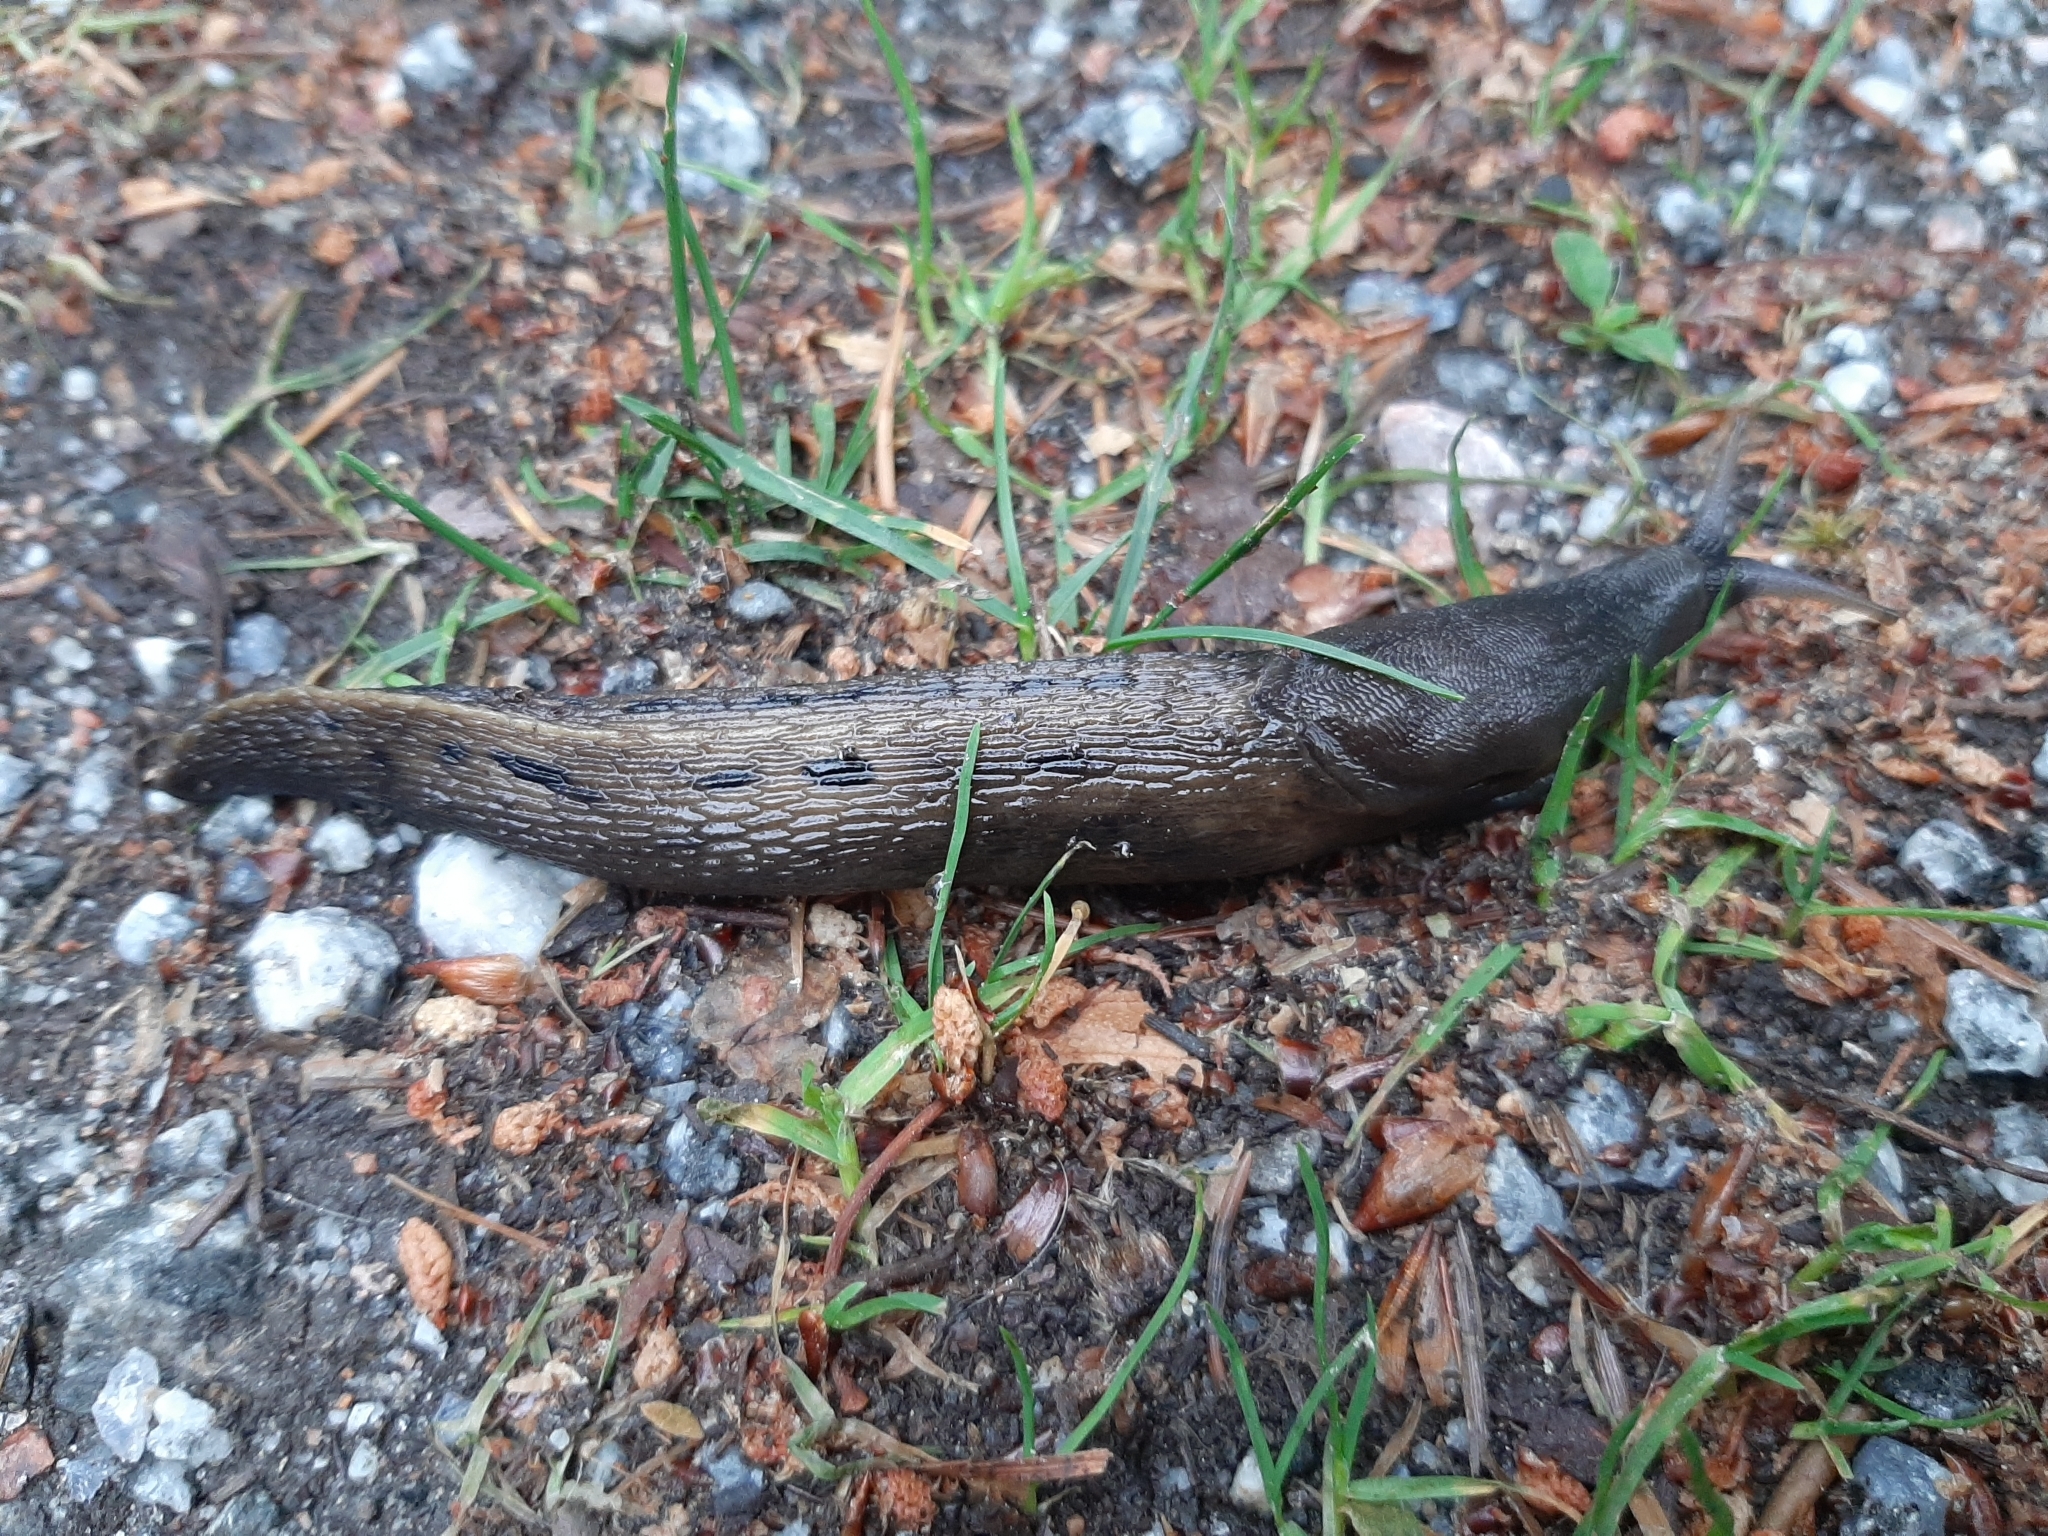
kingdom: Animalia
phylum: Mollusca
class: Gastropoda
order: Stylommatophora
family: Limacidae
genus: Limax
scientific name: Limax cinereoniger
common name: Ash-black slug
